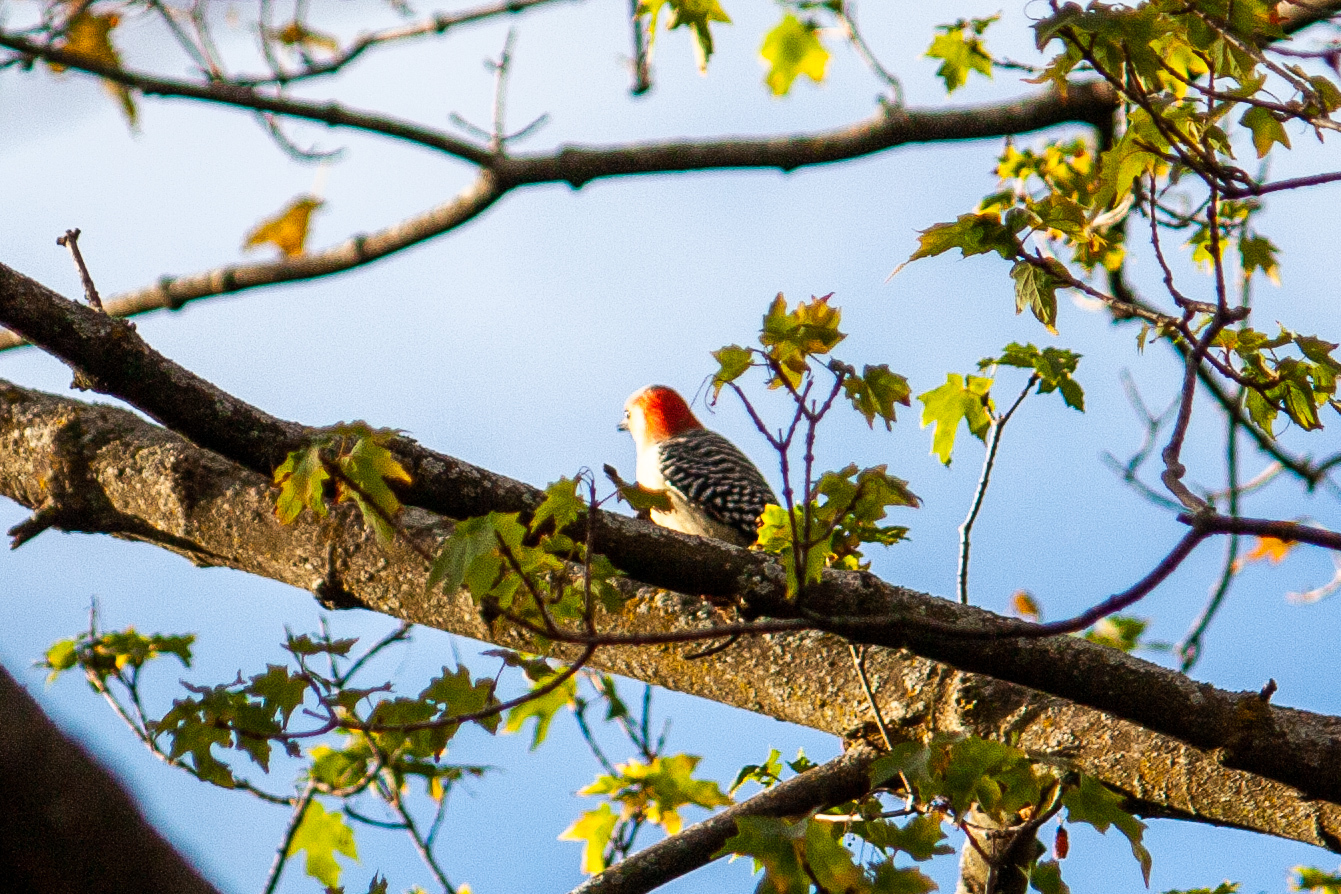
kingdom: Animalia
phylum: Chordata
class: Aves
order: Piciformes
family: Picidae
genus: Melanerpes
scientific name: Melanerpes carolinus
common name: Red-bellied woodpecker
